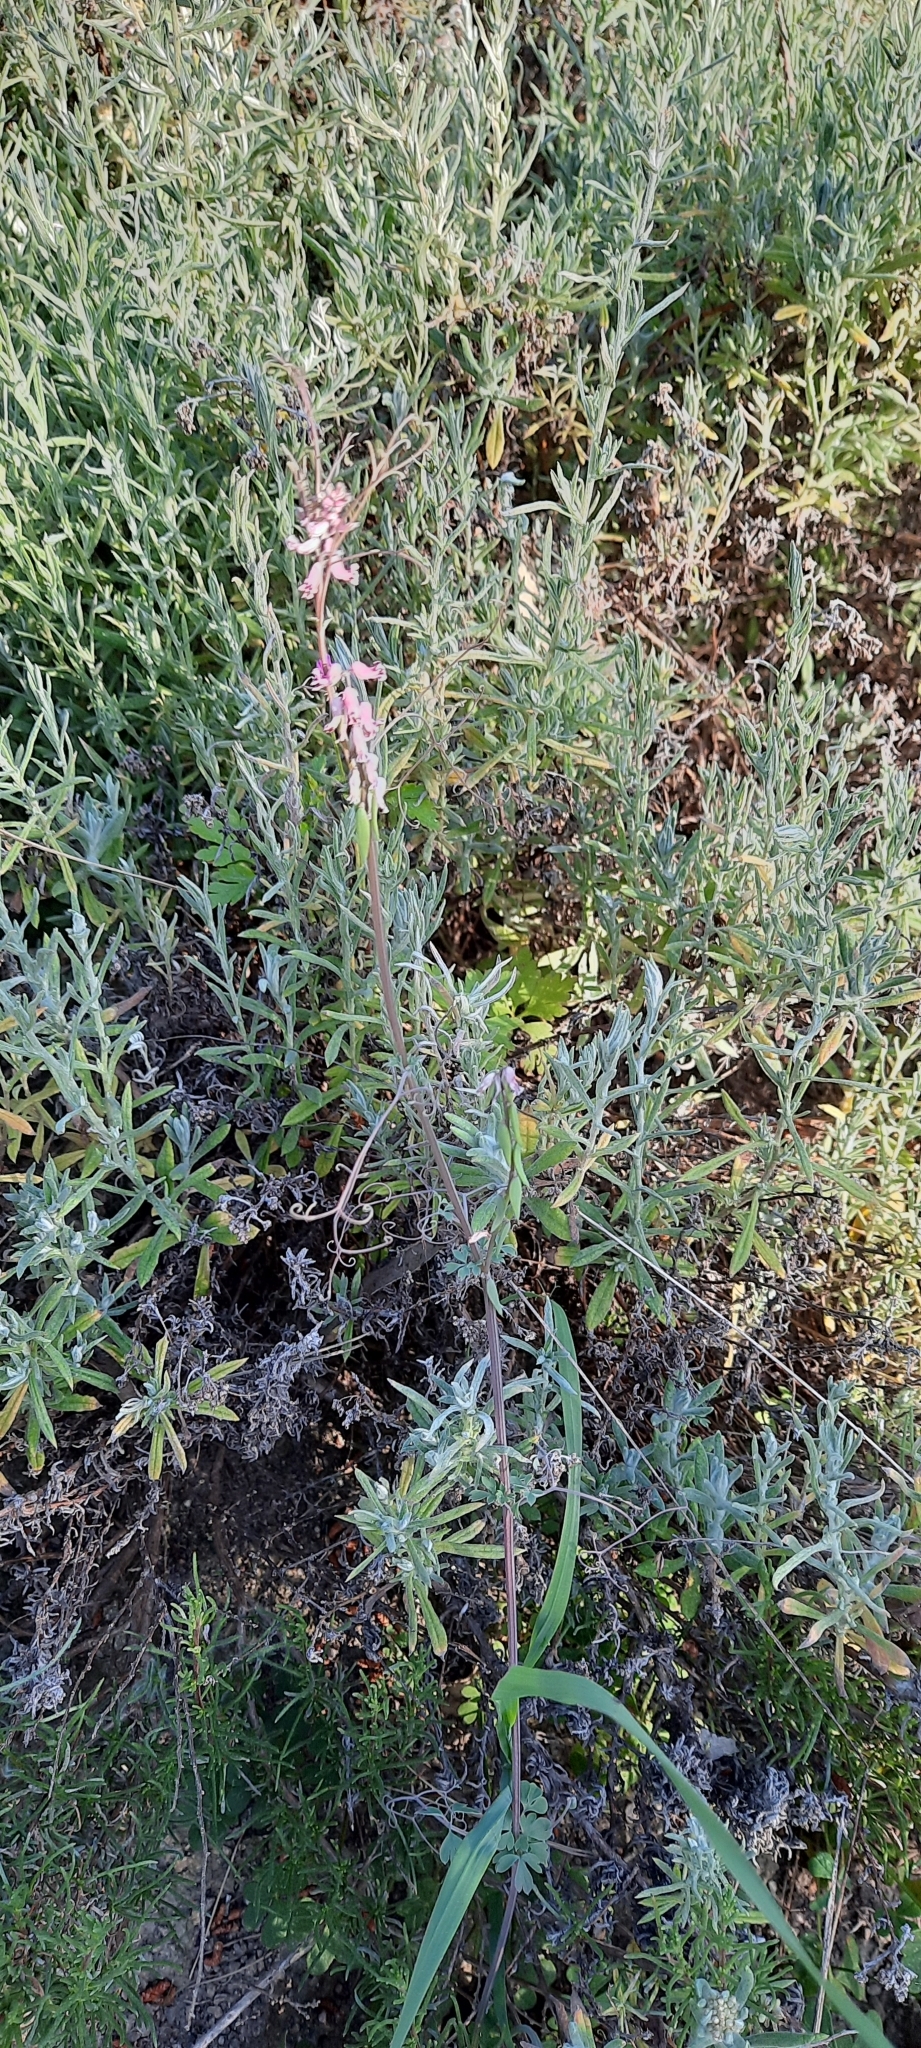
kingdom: Plantae
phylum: Tracheophyta
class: Magnoliopsida
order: Ranunculales
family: Papaveraceae
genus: Cysticapnos
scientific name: Cysticapnos cracca
